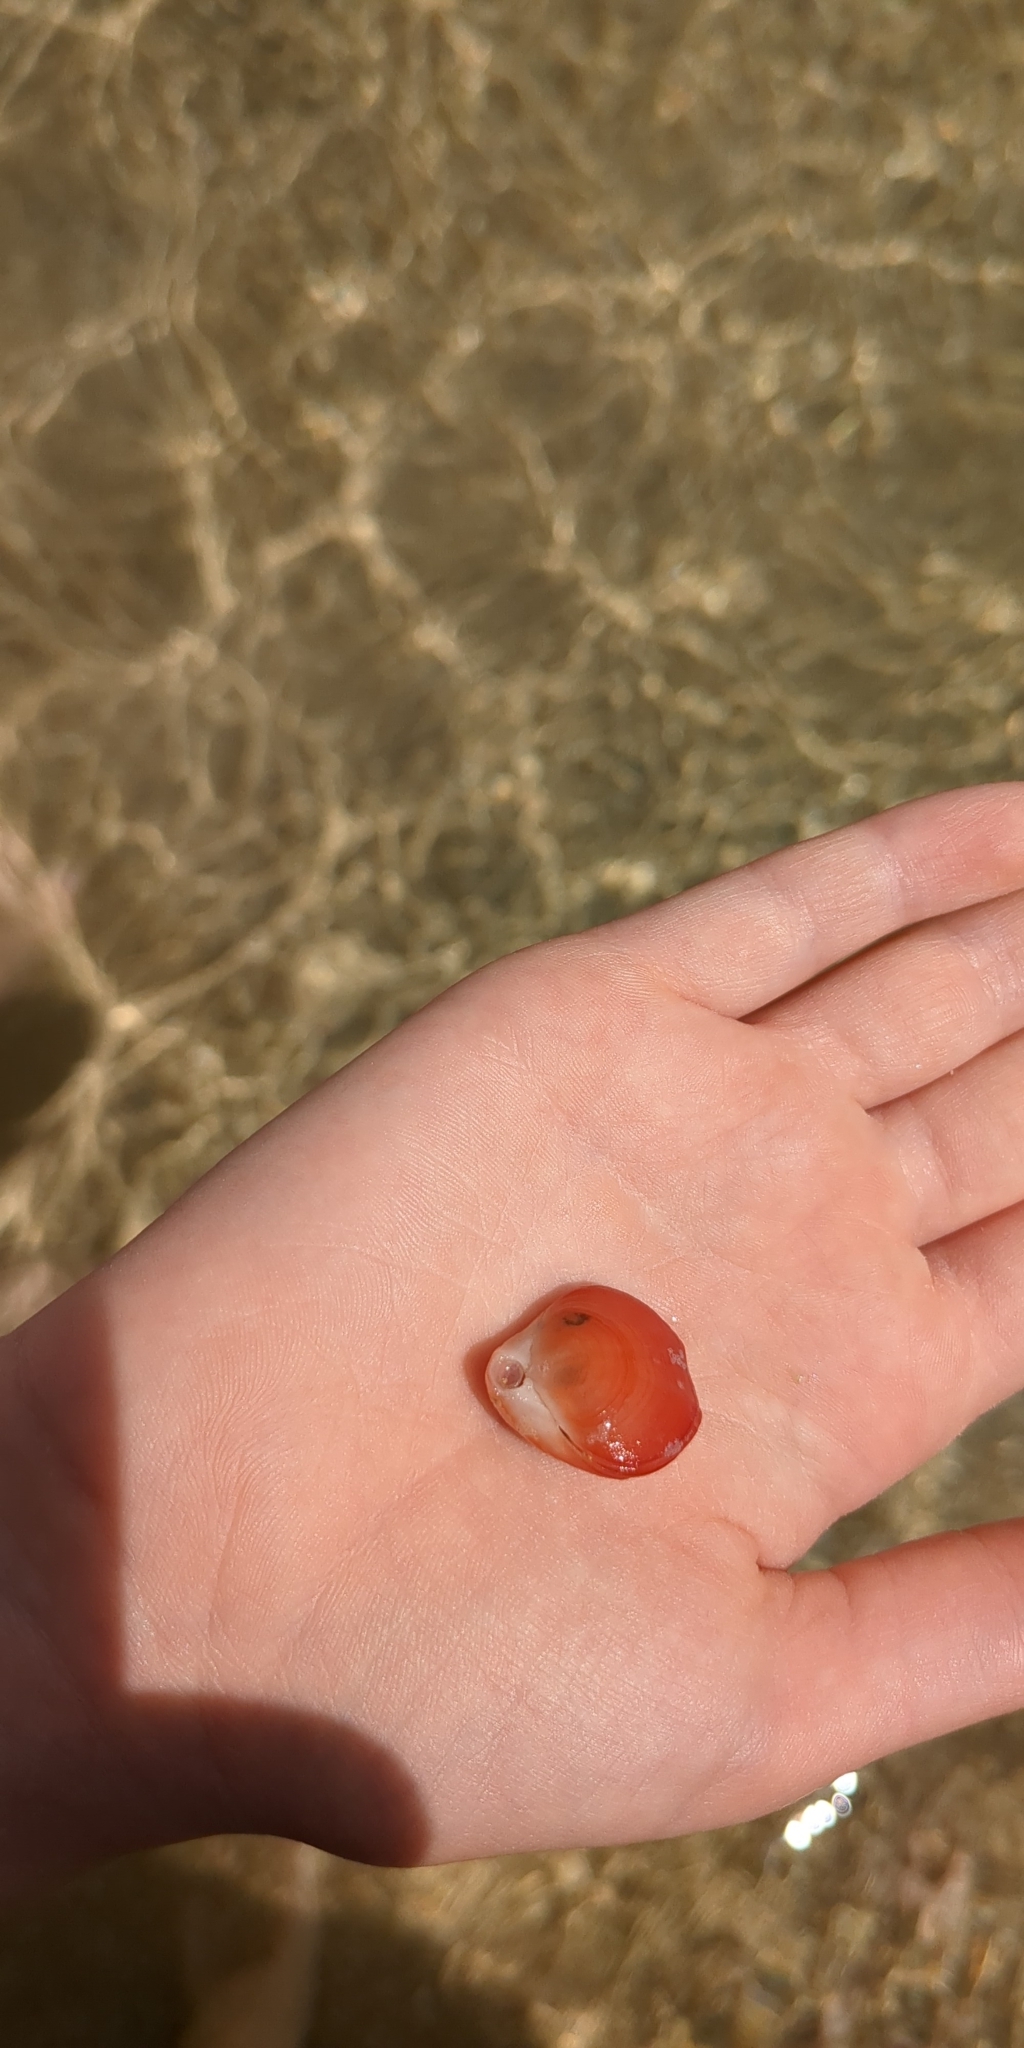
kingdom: Animalia
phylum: Brachiopoda
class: Rhynchonellata
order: Terebratulida
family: Terebratellidae
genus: Calloria
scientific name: Calloria inconspicua
